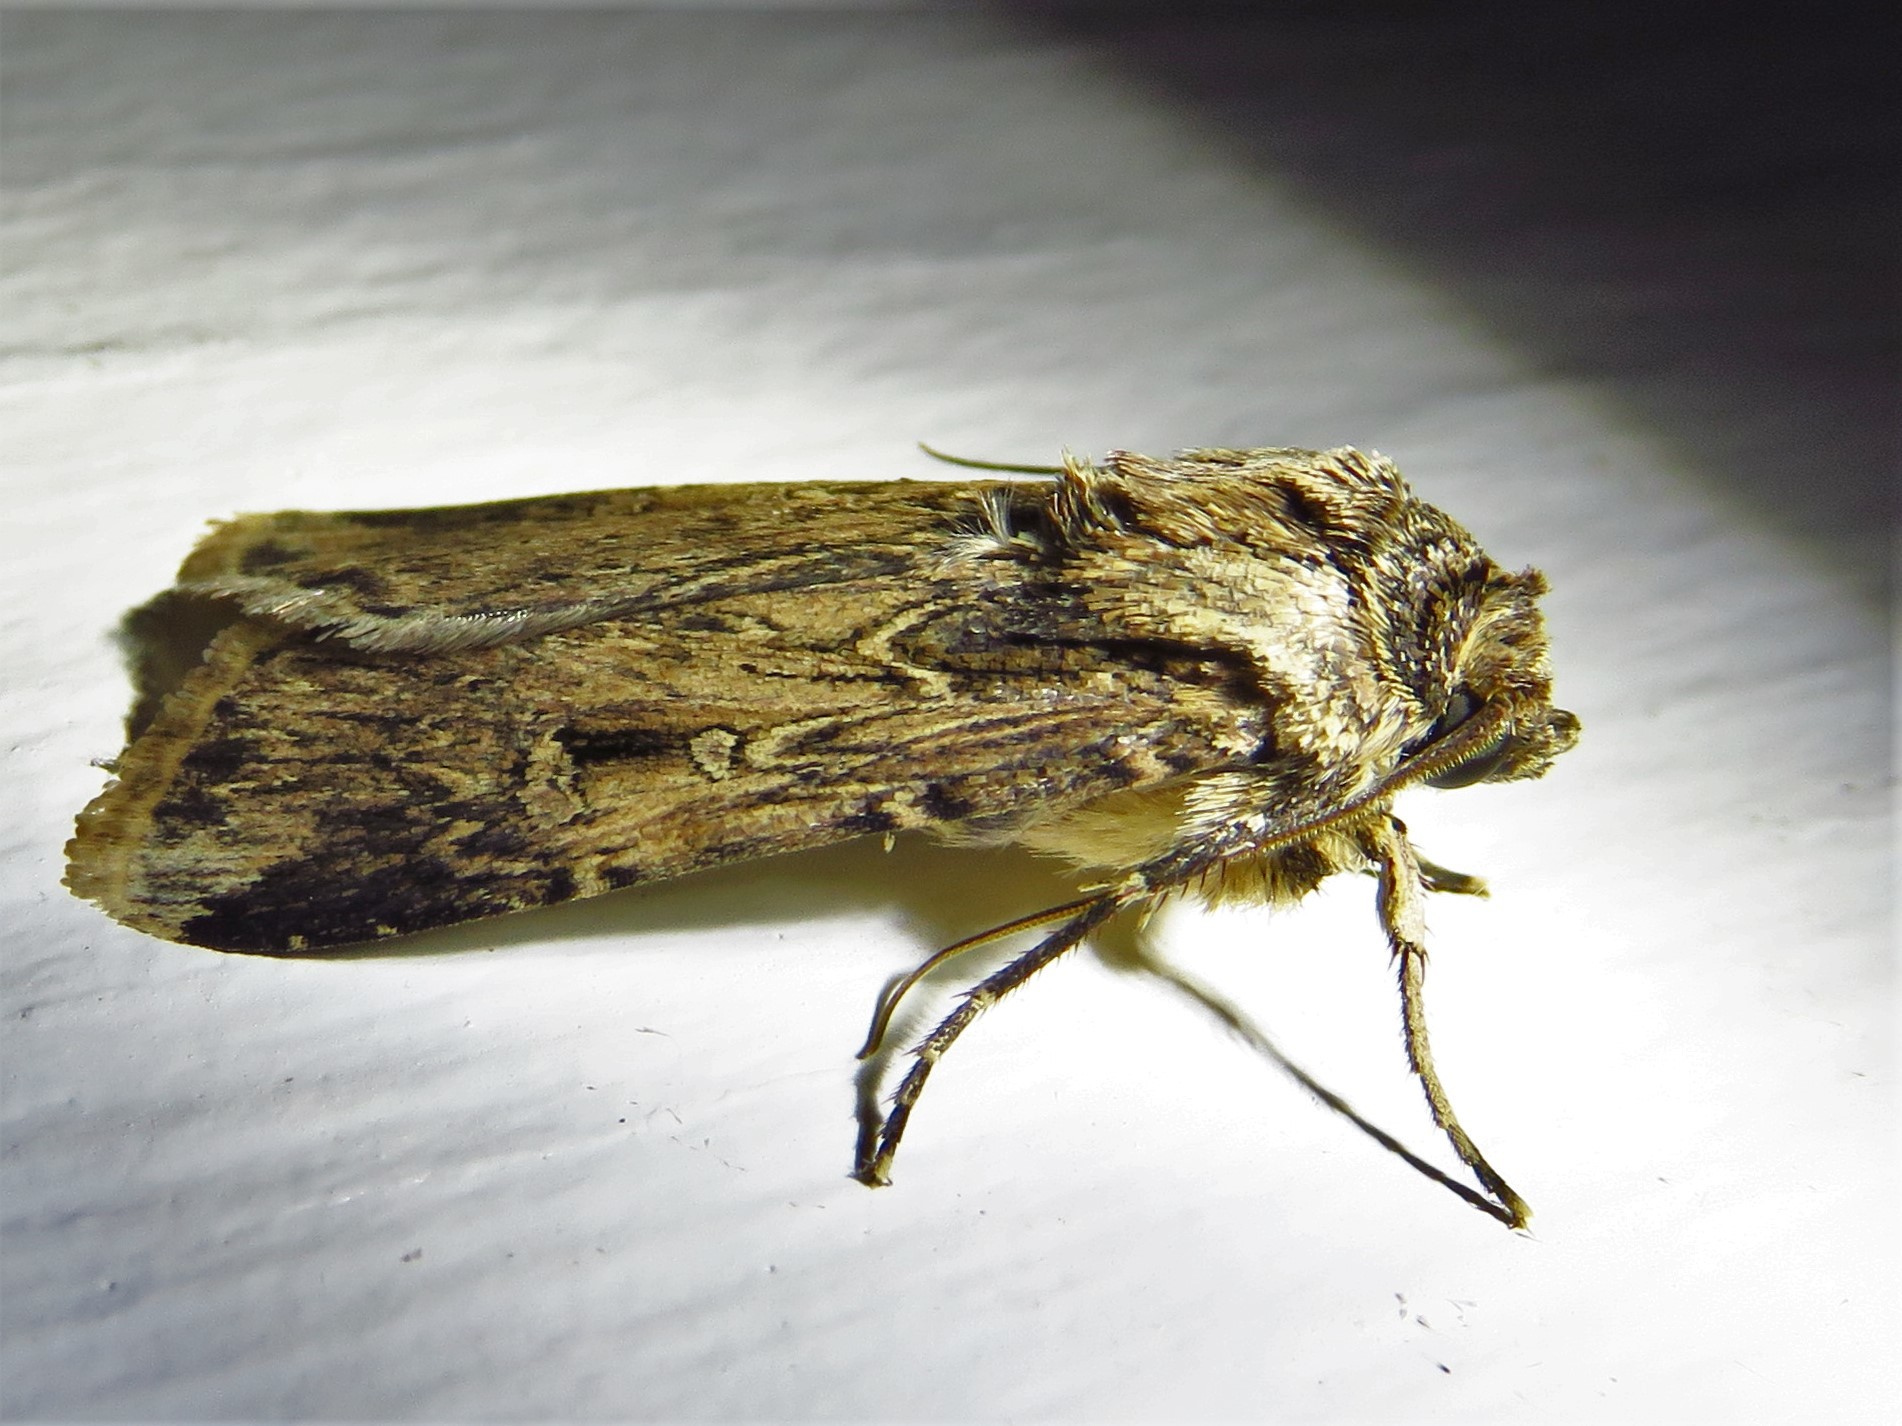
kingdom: Animalia
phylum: Arthropoda
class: Insecta
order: Lepidoptera
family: Noctuidae
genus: Feltia
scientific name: Feltia subterranea
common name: Granulate cutworm
